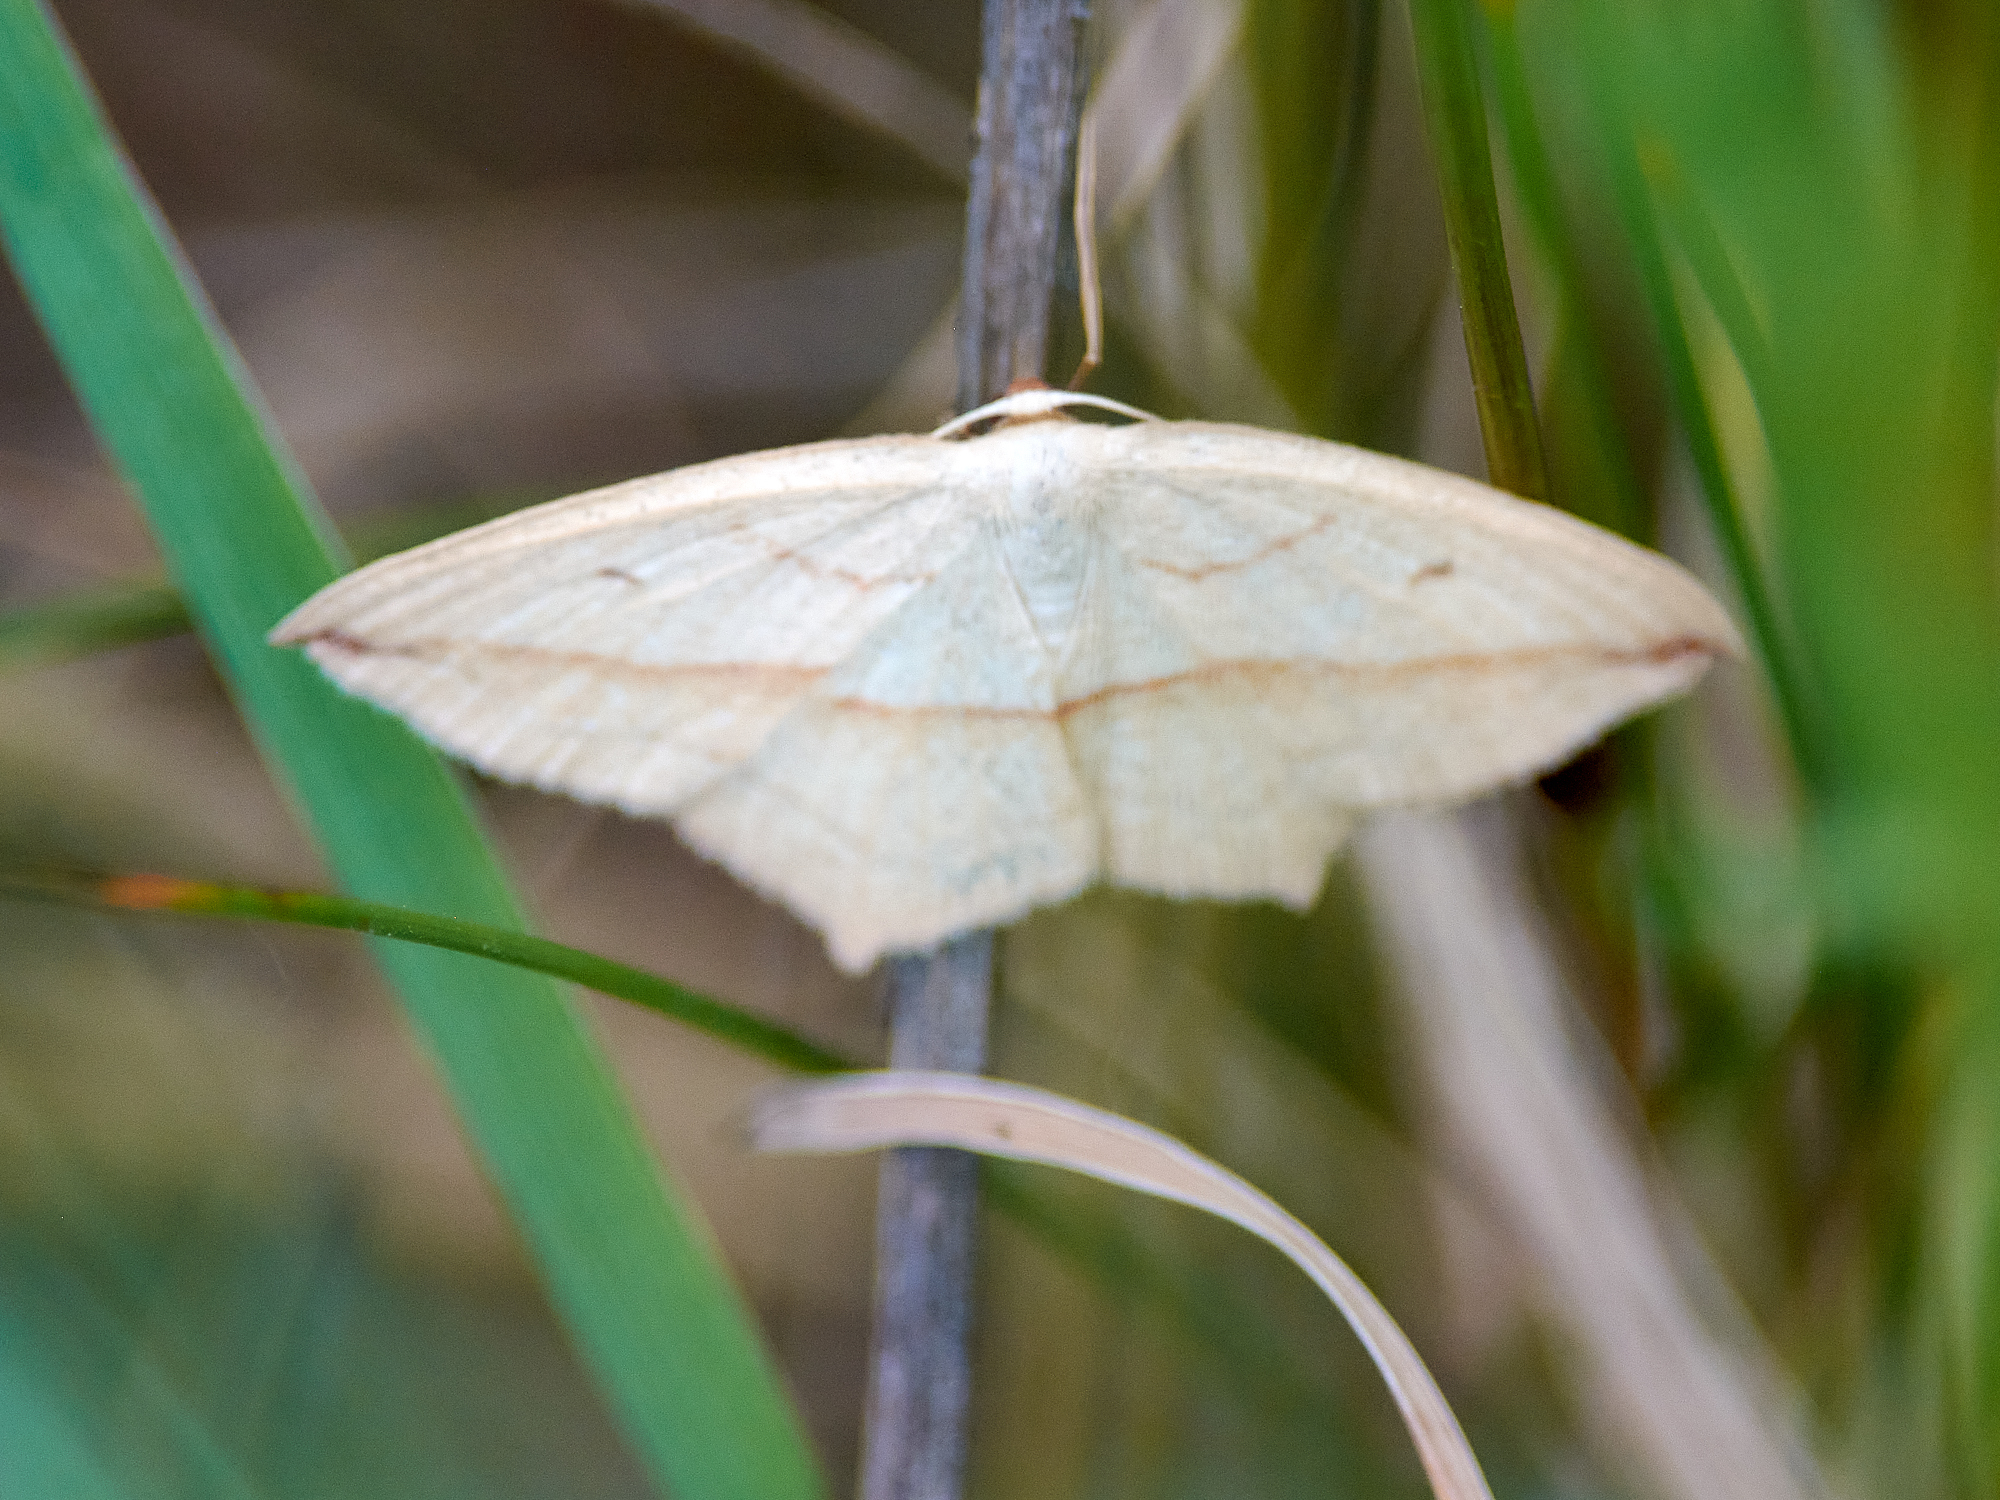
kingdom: Animalia
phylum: Arthropoda
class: Insecta
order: Lepidoptera
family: Geometridae
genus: Timandra
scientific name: Timandra comae
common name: Blood-vein
